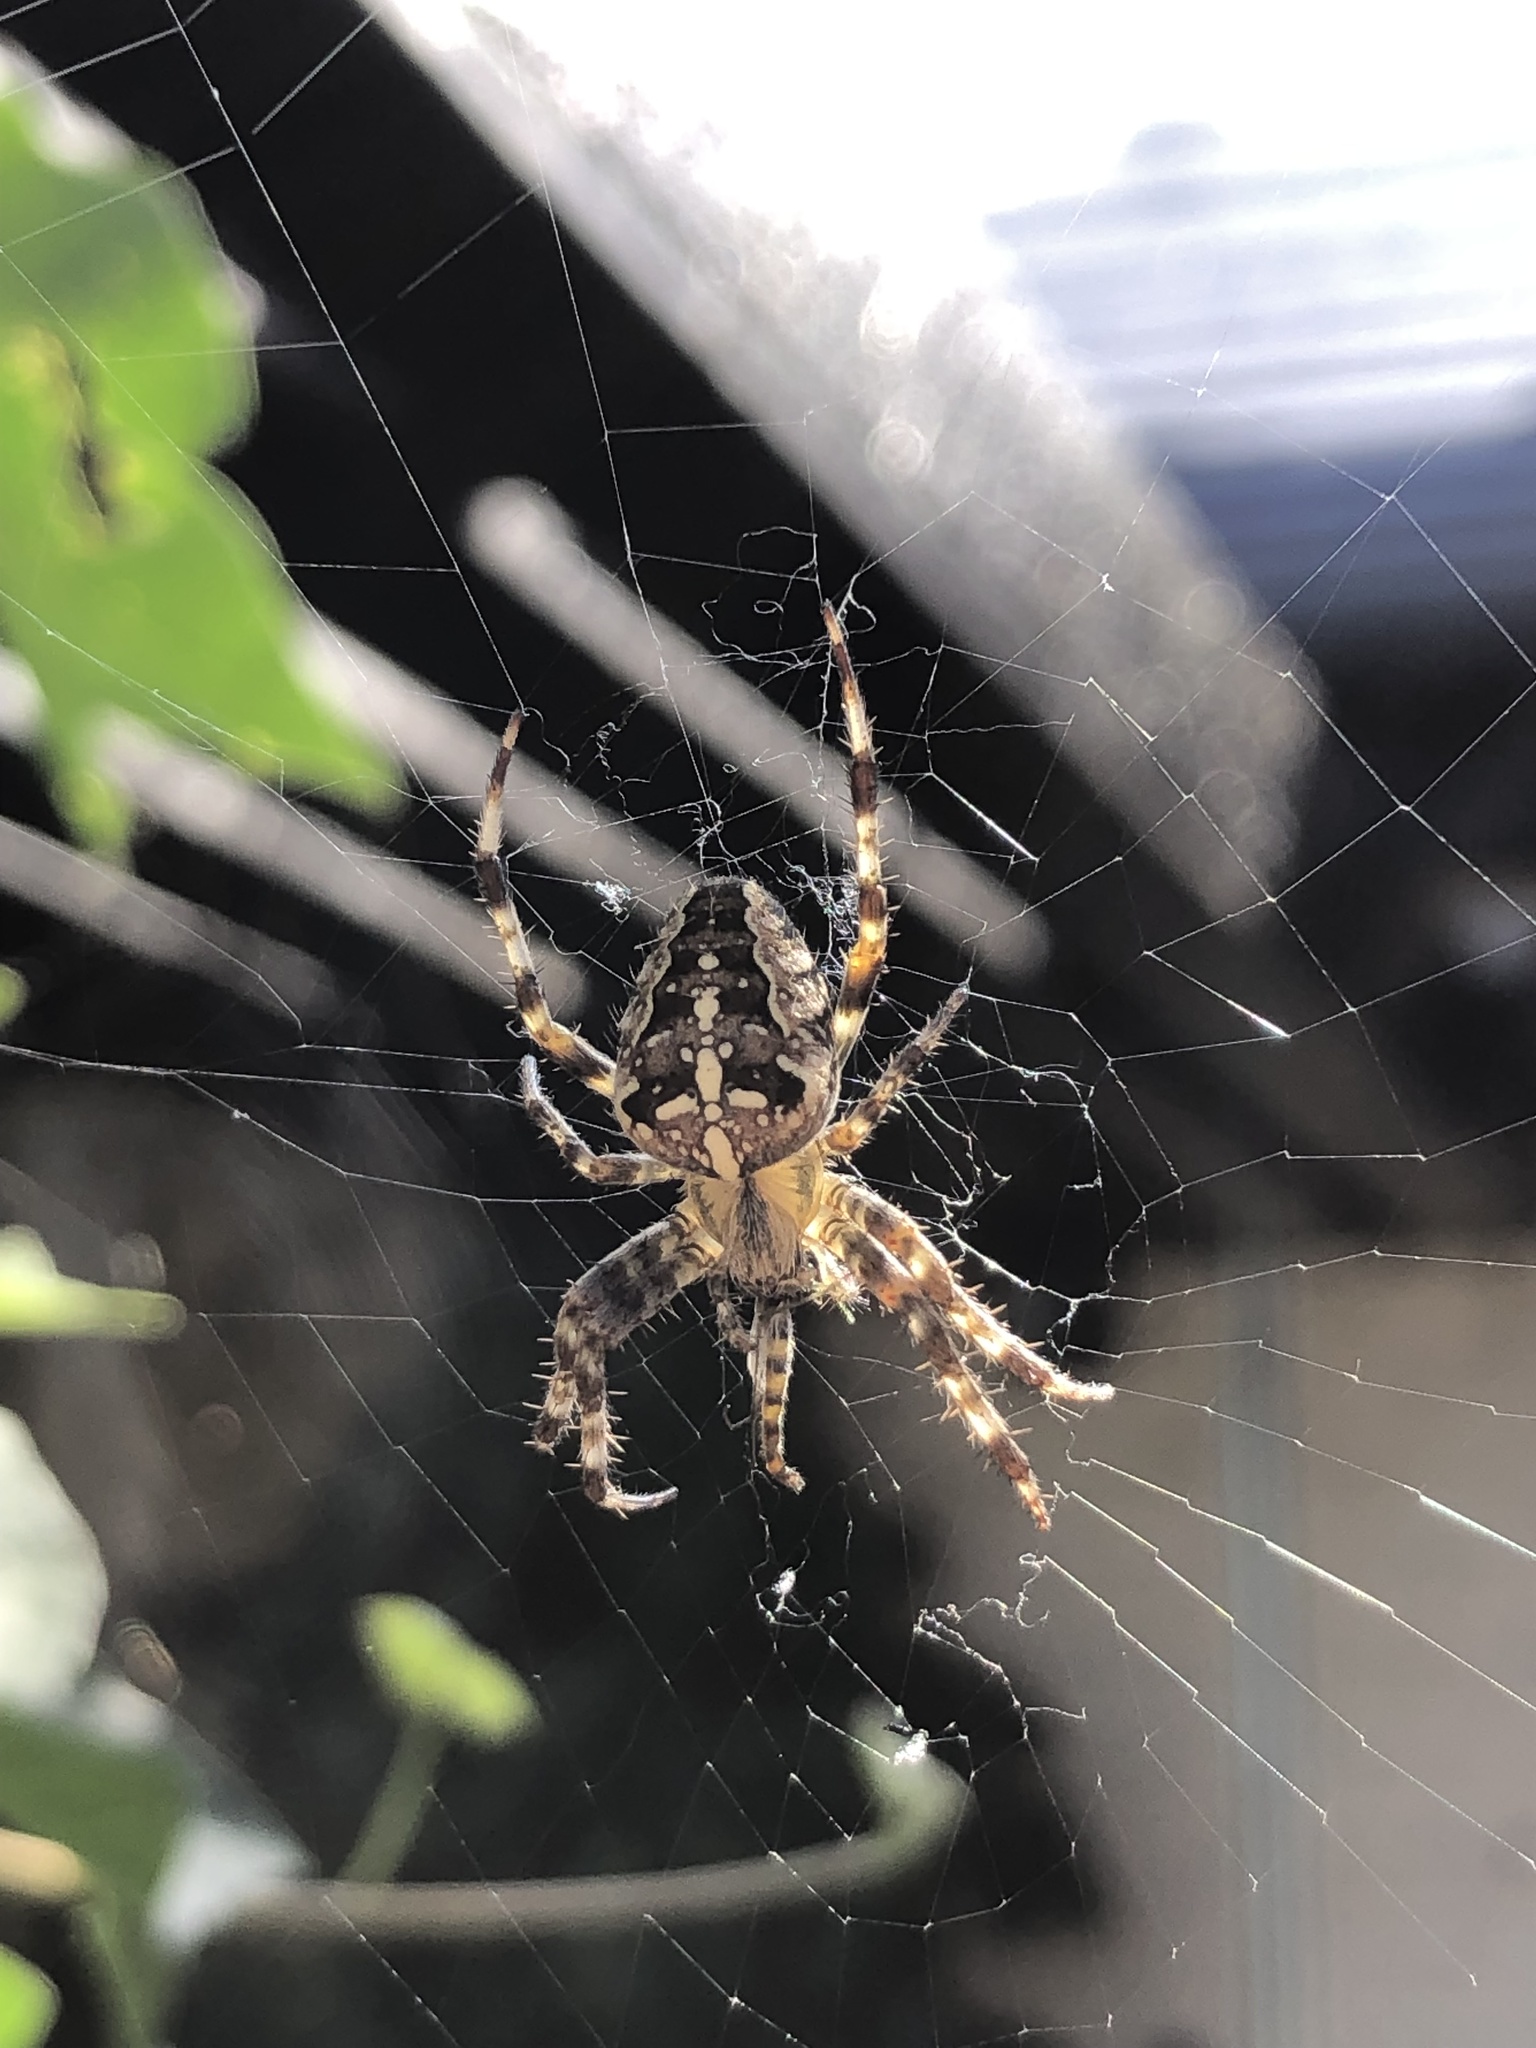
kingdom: Animalia
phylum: Arthropoda
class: Arachnida
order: Araneae
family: Araneidae
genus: Araneus
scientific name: Araneus diadematus
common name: Cross orbweaver
